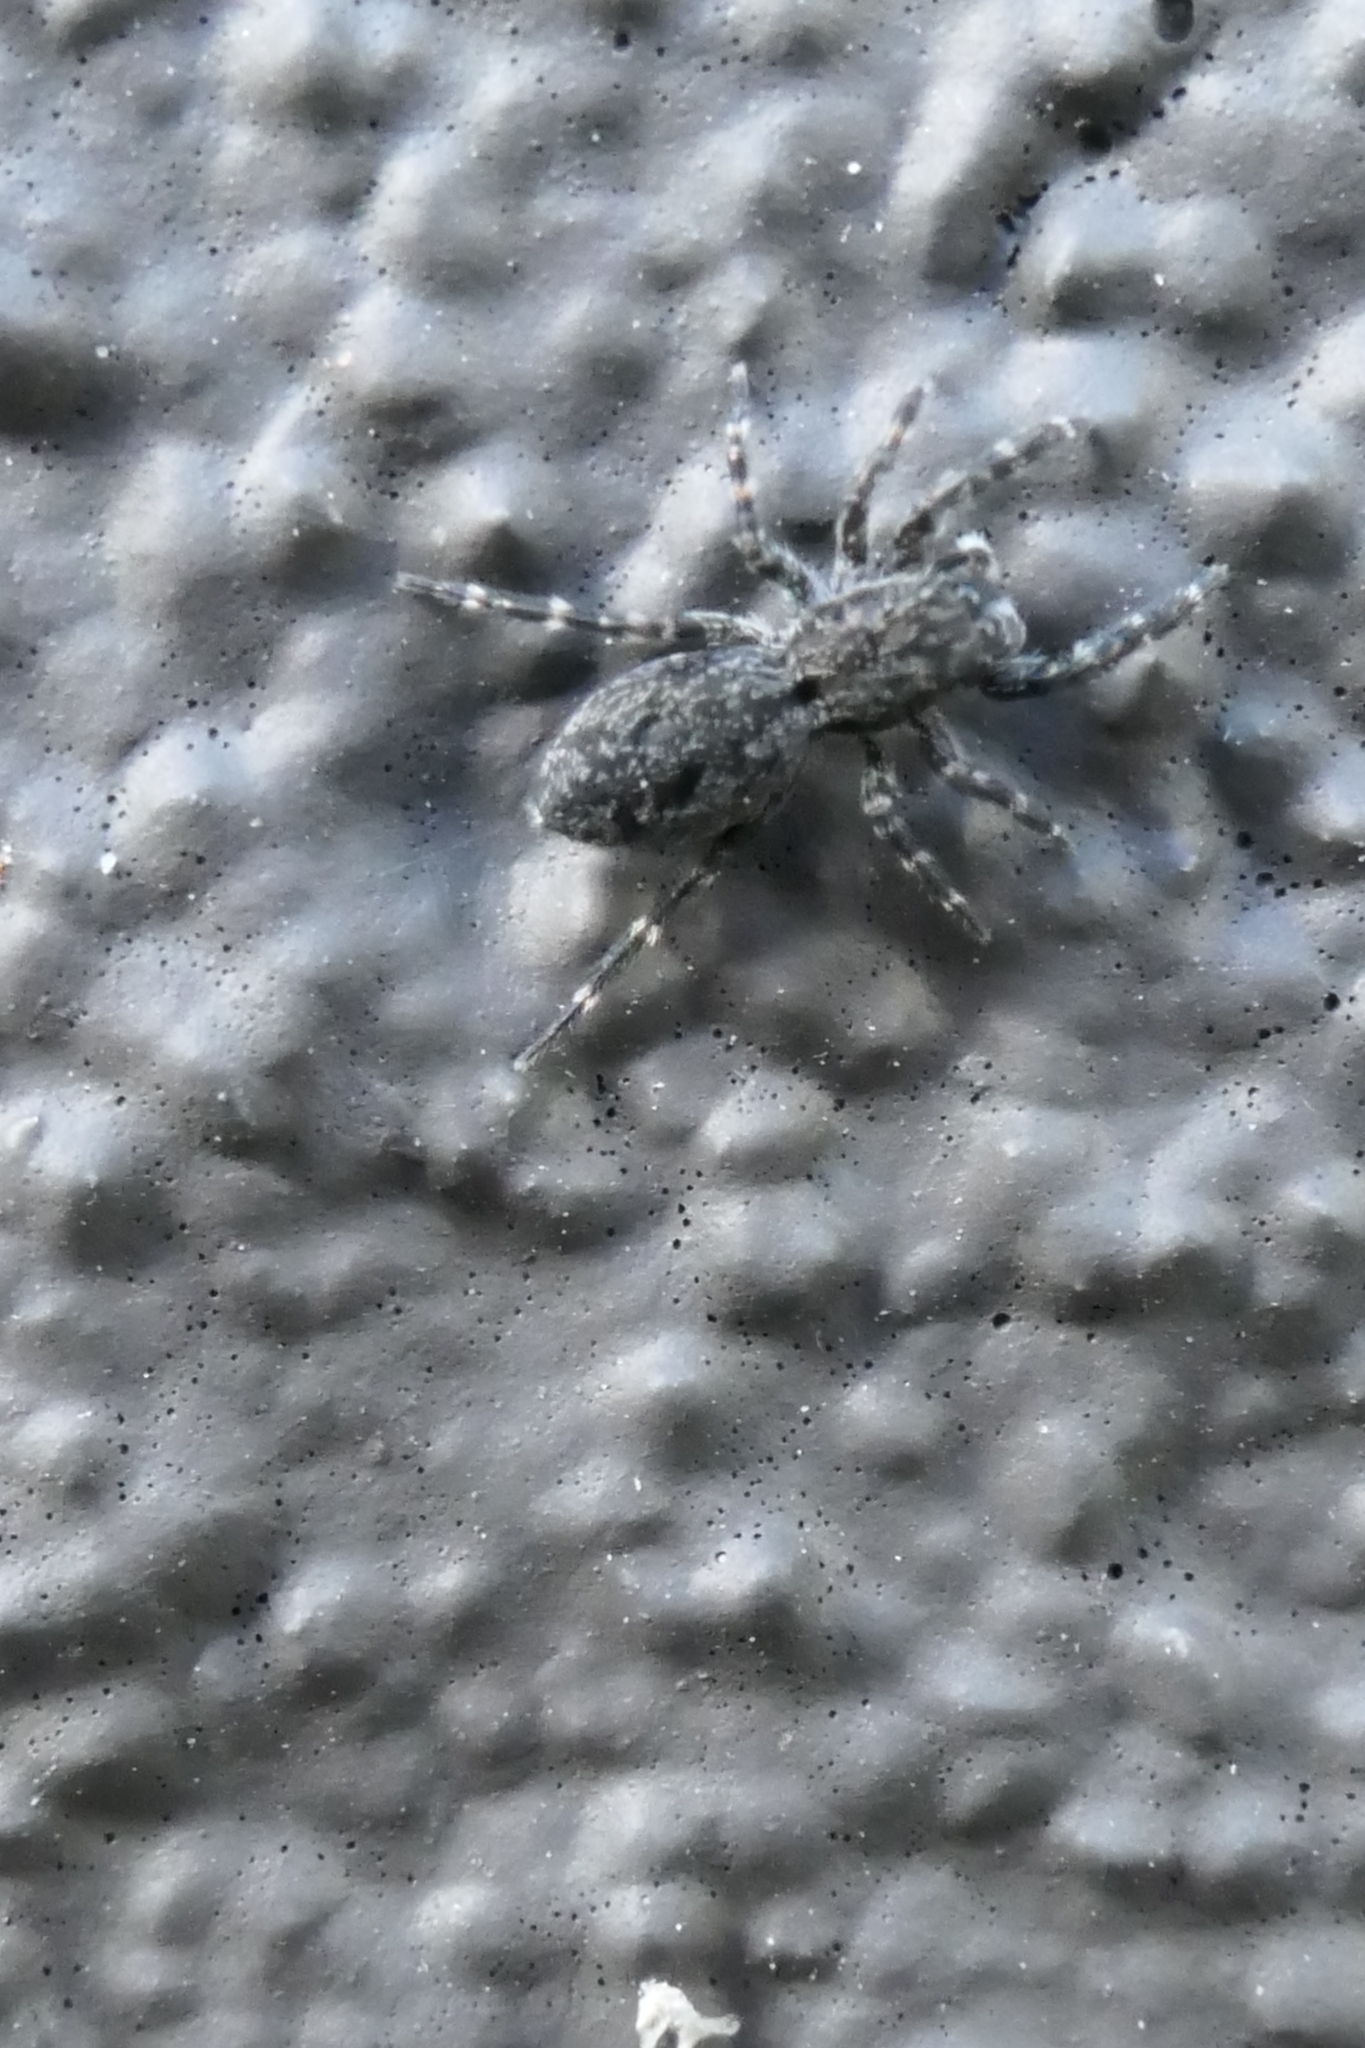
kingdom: Animalia
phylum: Arthropoda
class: Arachnida
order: Araneae
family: Salticidae
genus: Adoxotoma
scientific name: Adoxotoma forsteri
